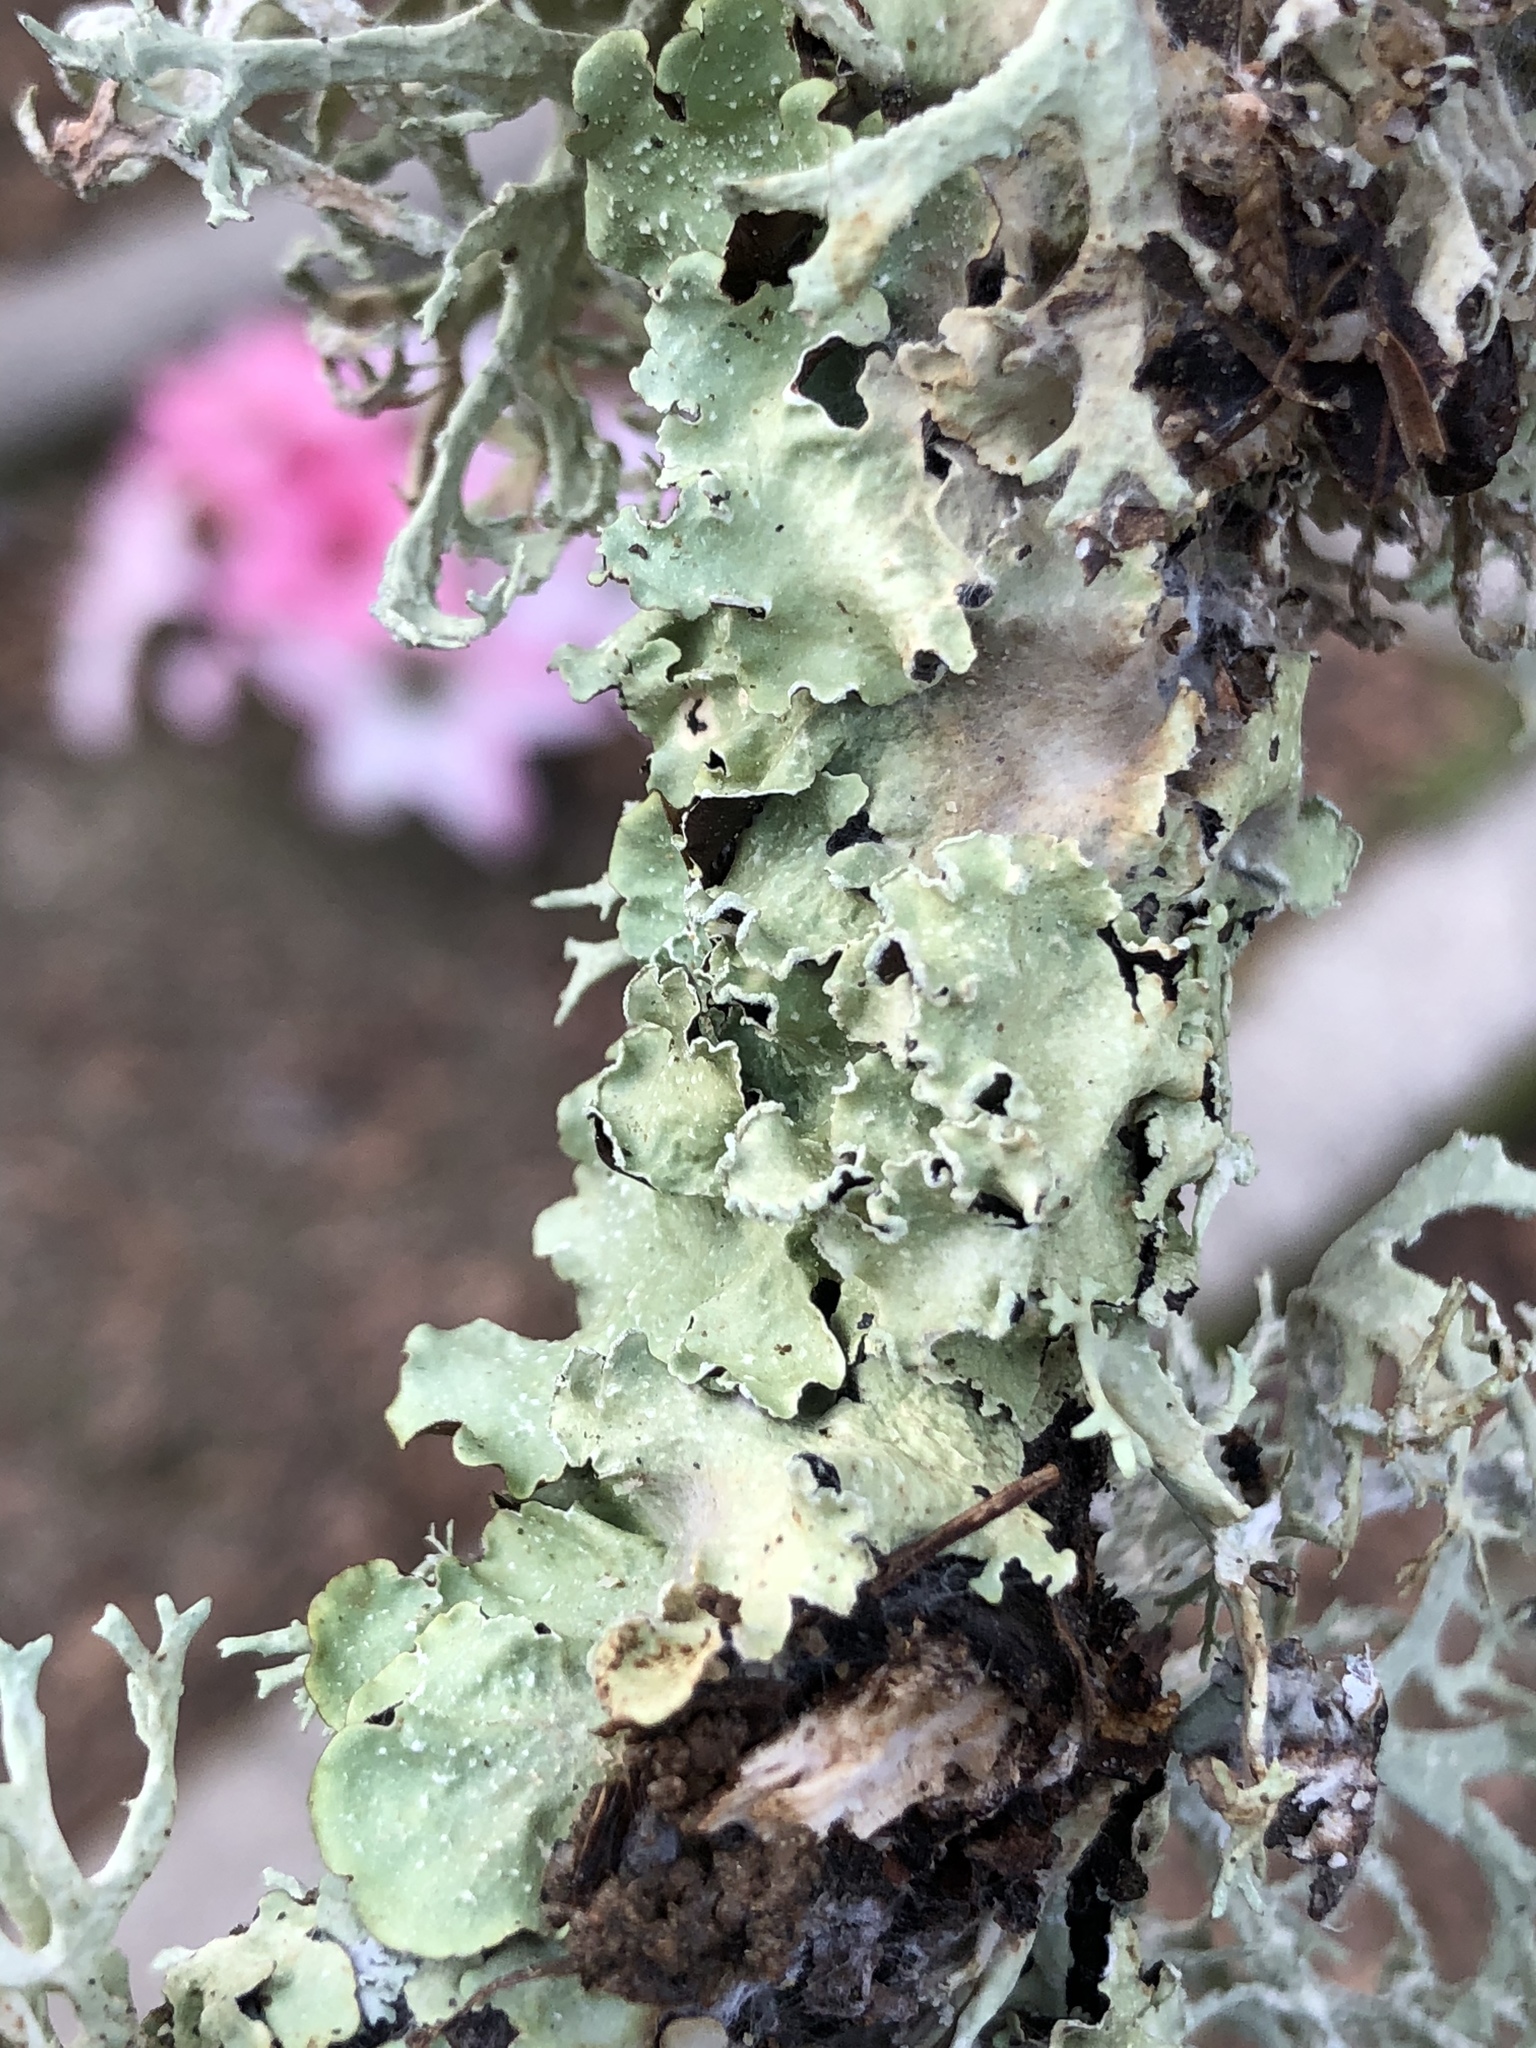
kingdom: Fungi
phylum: Ascomycota
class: Lecanoromycetes
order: Lecanorales
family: Parmeliaceae
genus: Flavopunctelia
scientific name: Flavopunctelia flaventior
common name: Speckled greenshield
